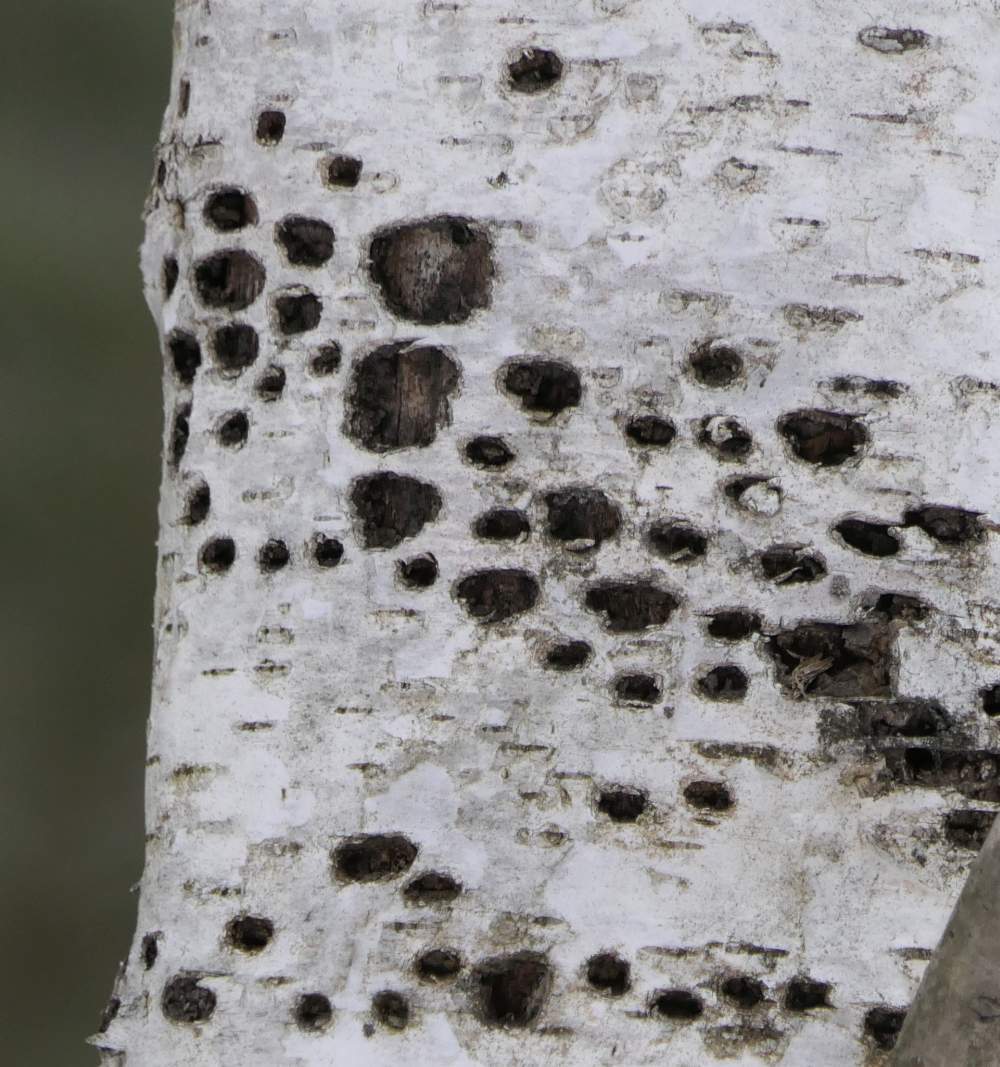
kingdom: Animalia
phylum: Chordata
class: Aves
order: Piciformes
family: Picidae
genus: Sphyrapicus
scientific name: Sphyrapicus varius
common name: Yellow-bellied sapsucker
